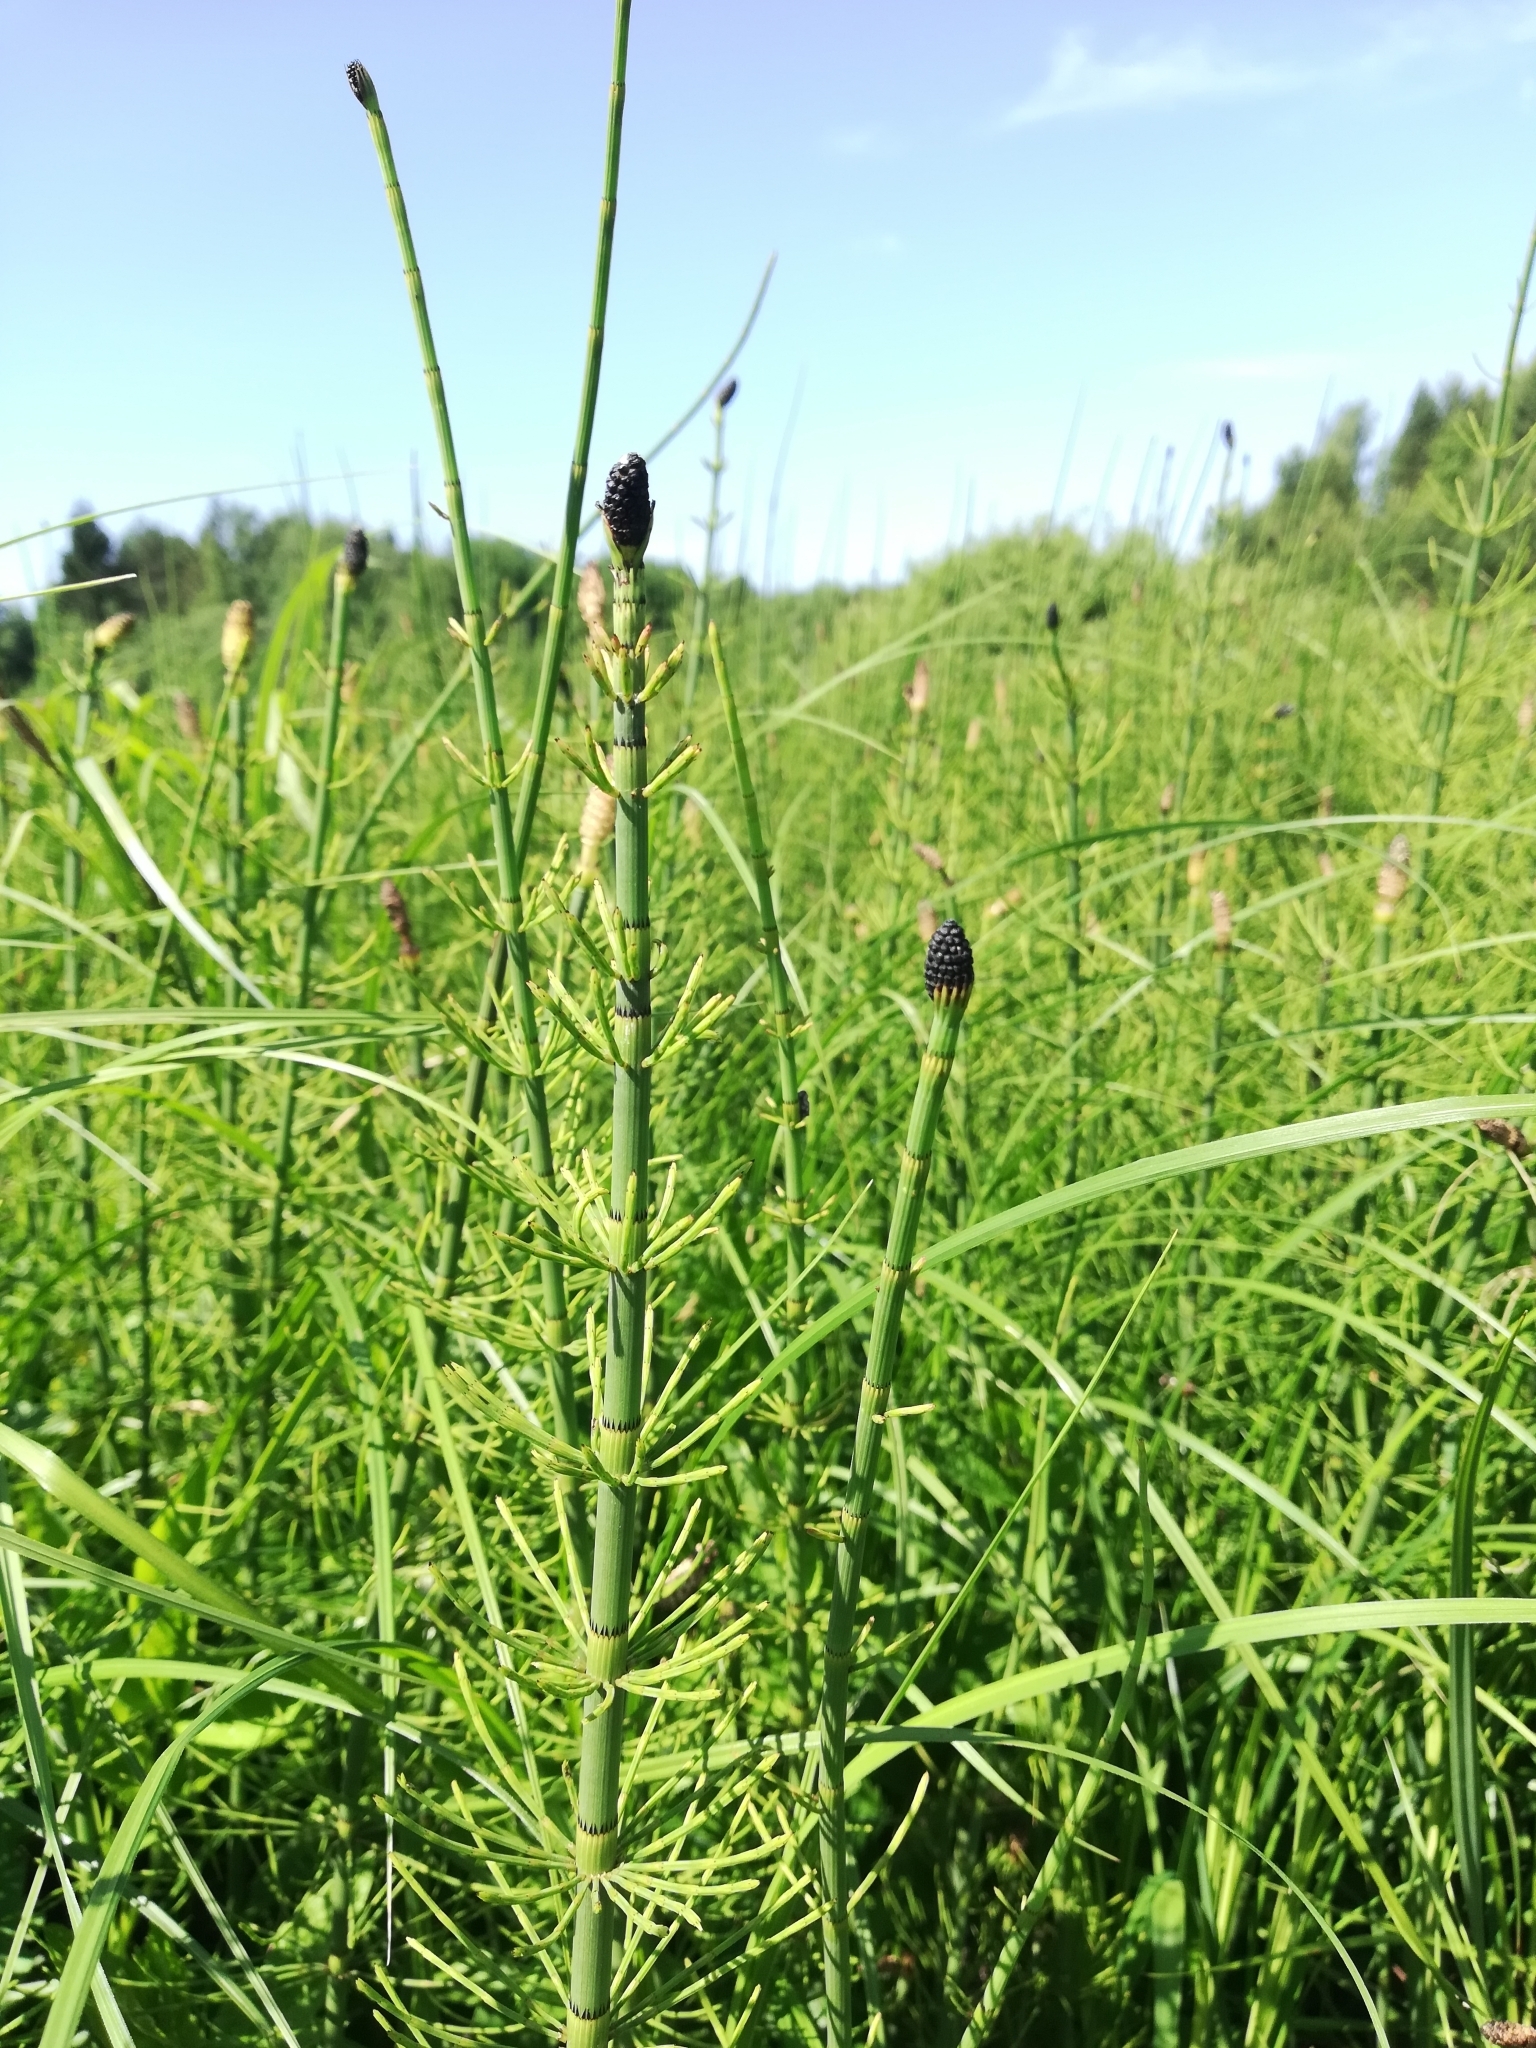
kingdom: Plantae
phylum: Tracheophyta
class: Polypodiopsida
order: Equisetales
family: Equisetaceae
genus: Equisetum
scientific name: Equisetum fluviatile
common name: Water horsetail
